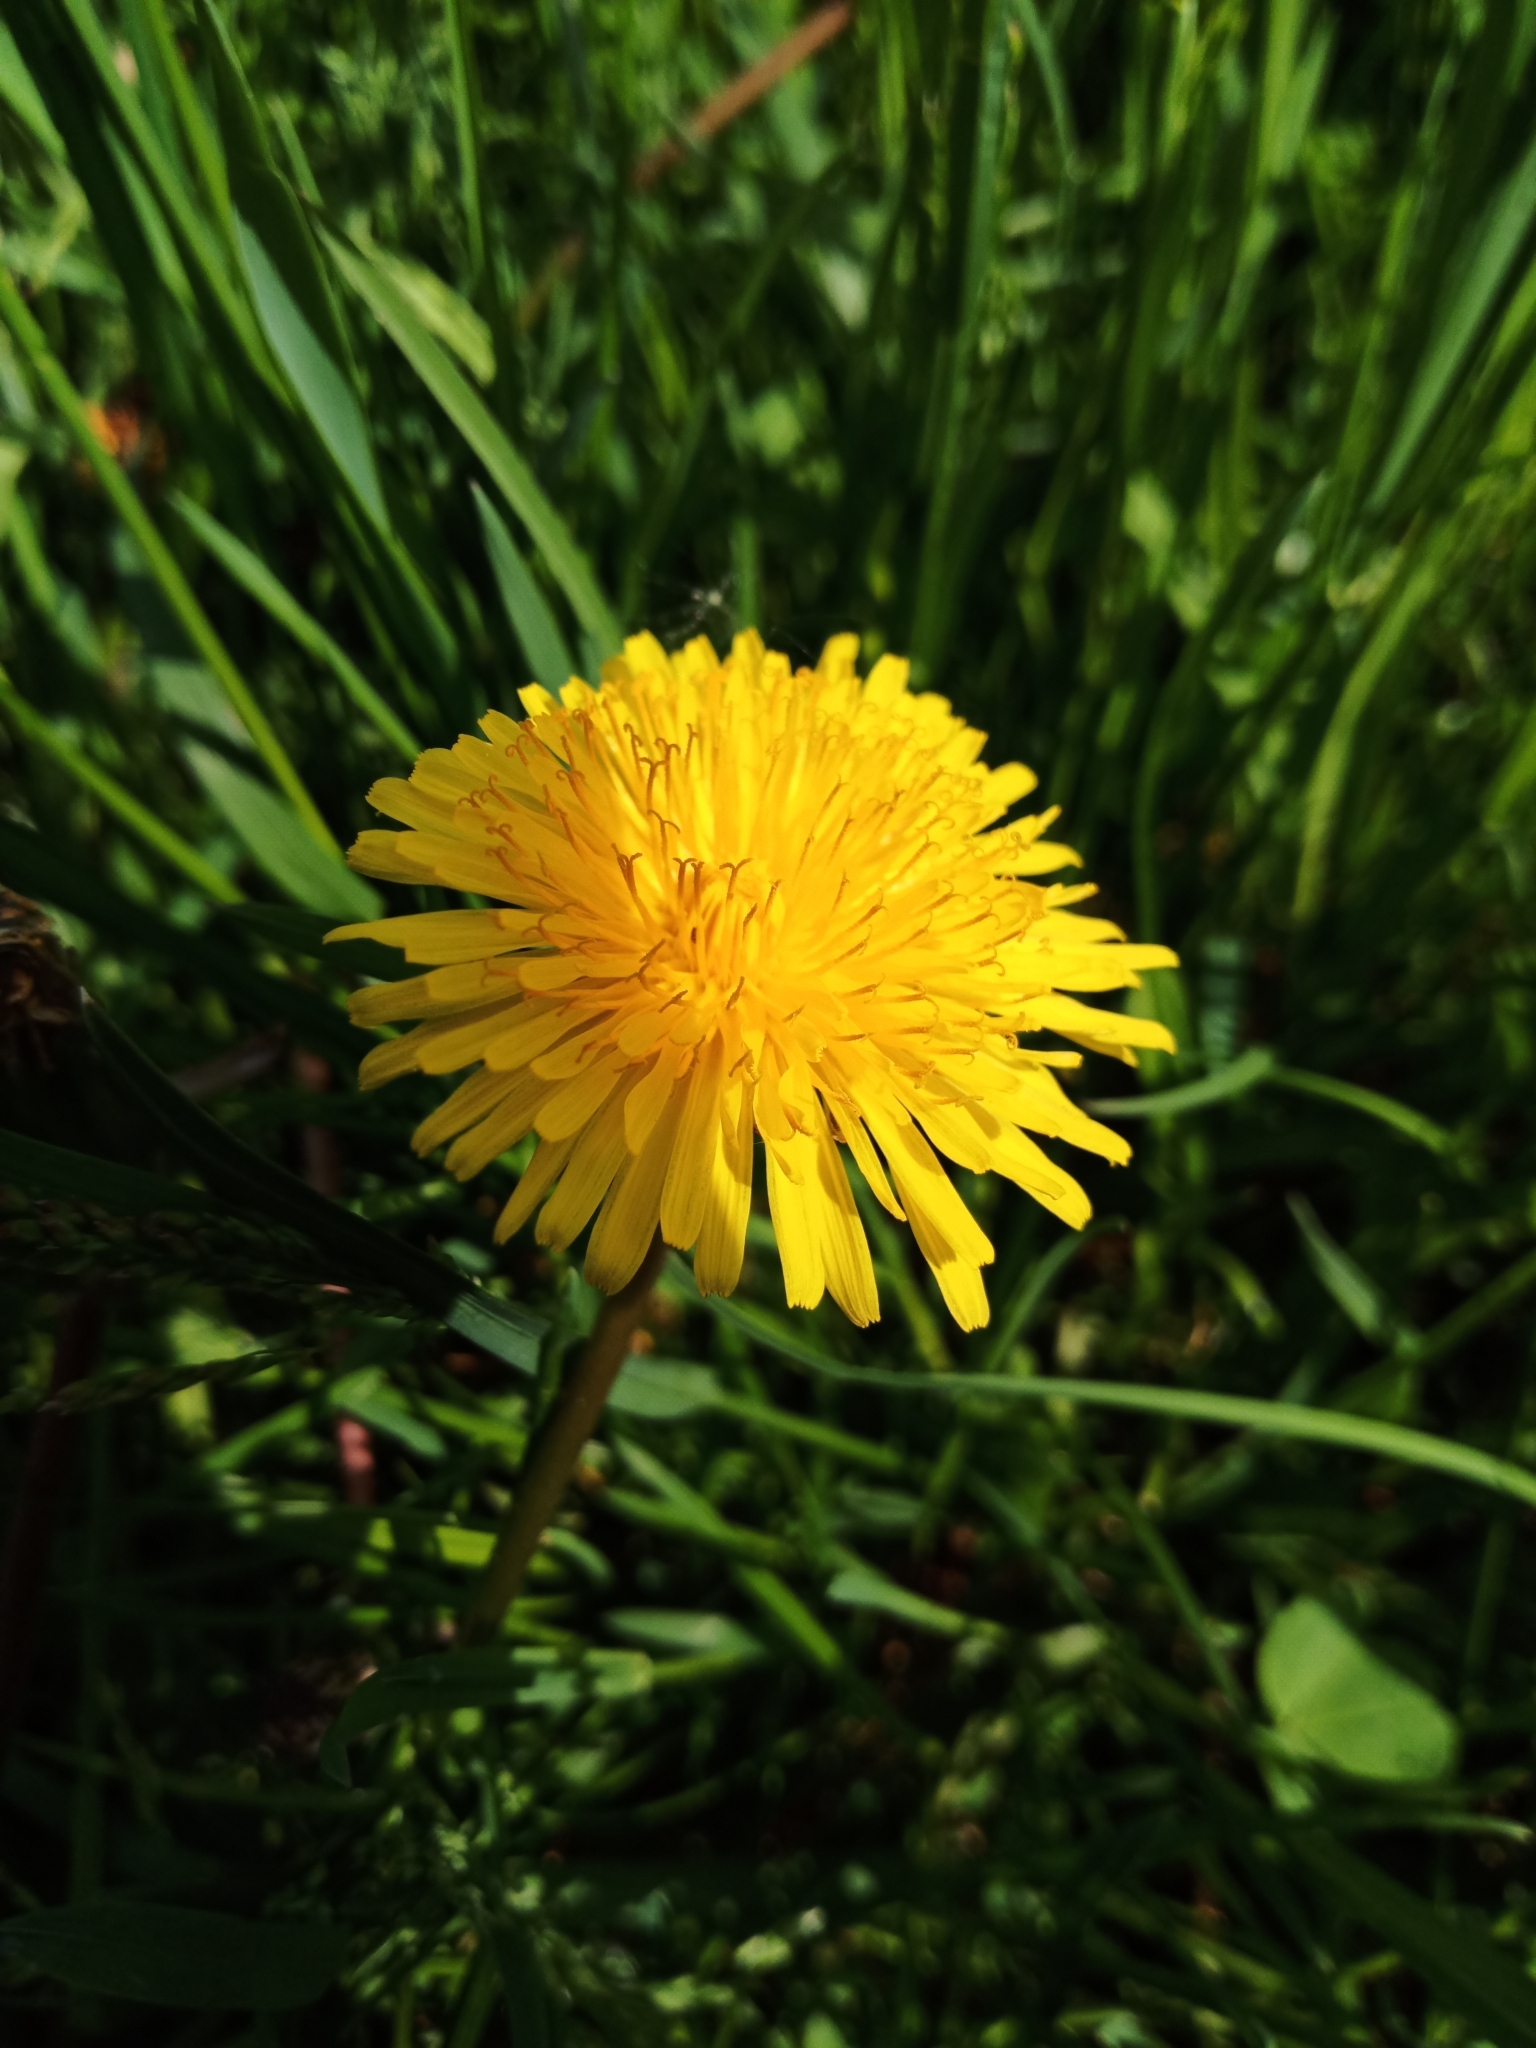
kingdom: Plantae
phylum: Tracheophyta
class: Magnoliopsida
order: Asterales
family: Asteraceae
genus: Taraxacum
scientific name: Taraxacum officinale
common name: Common dandelion
